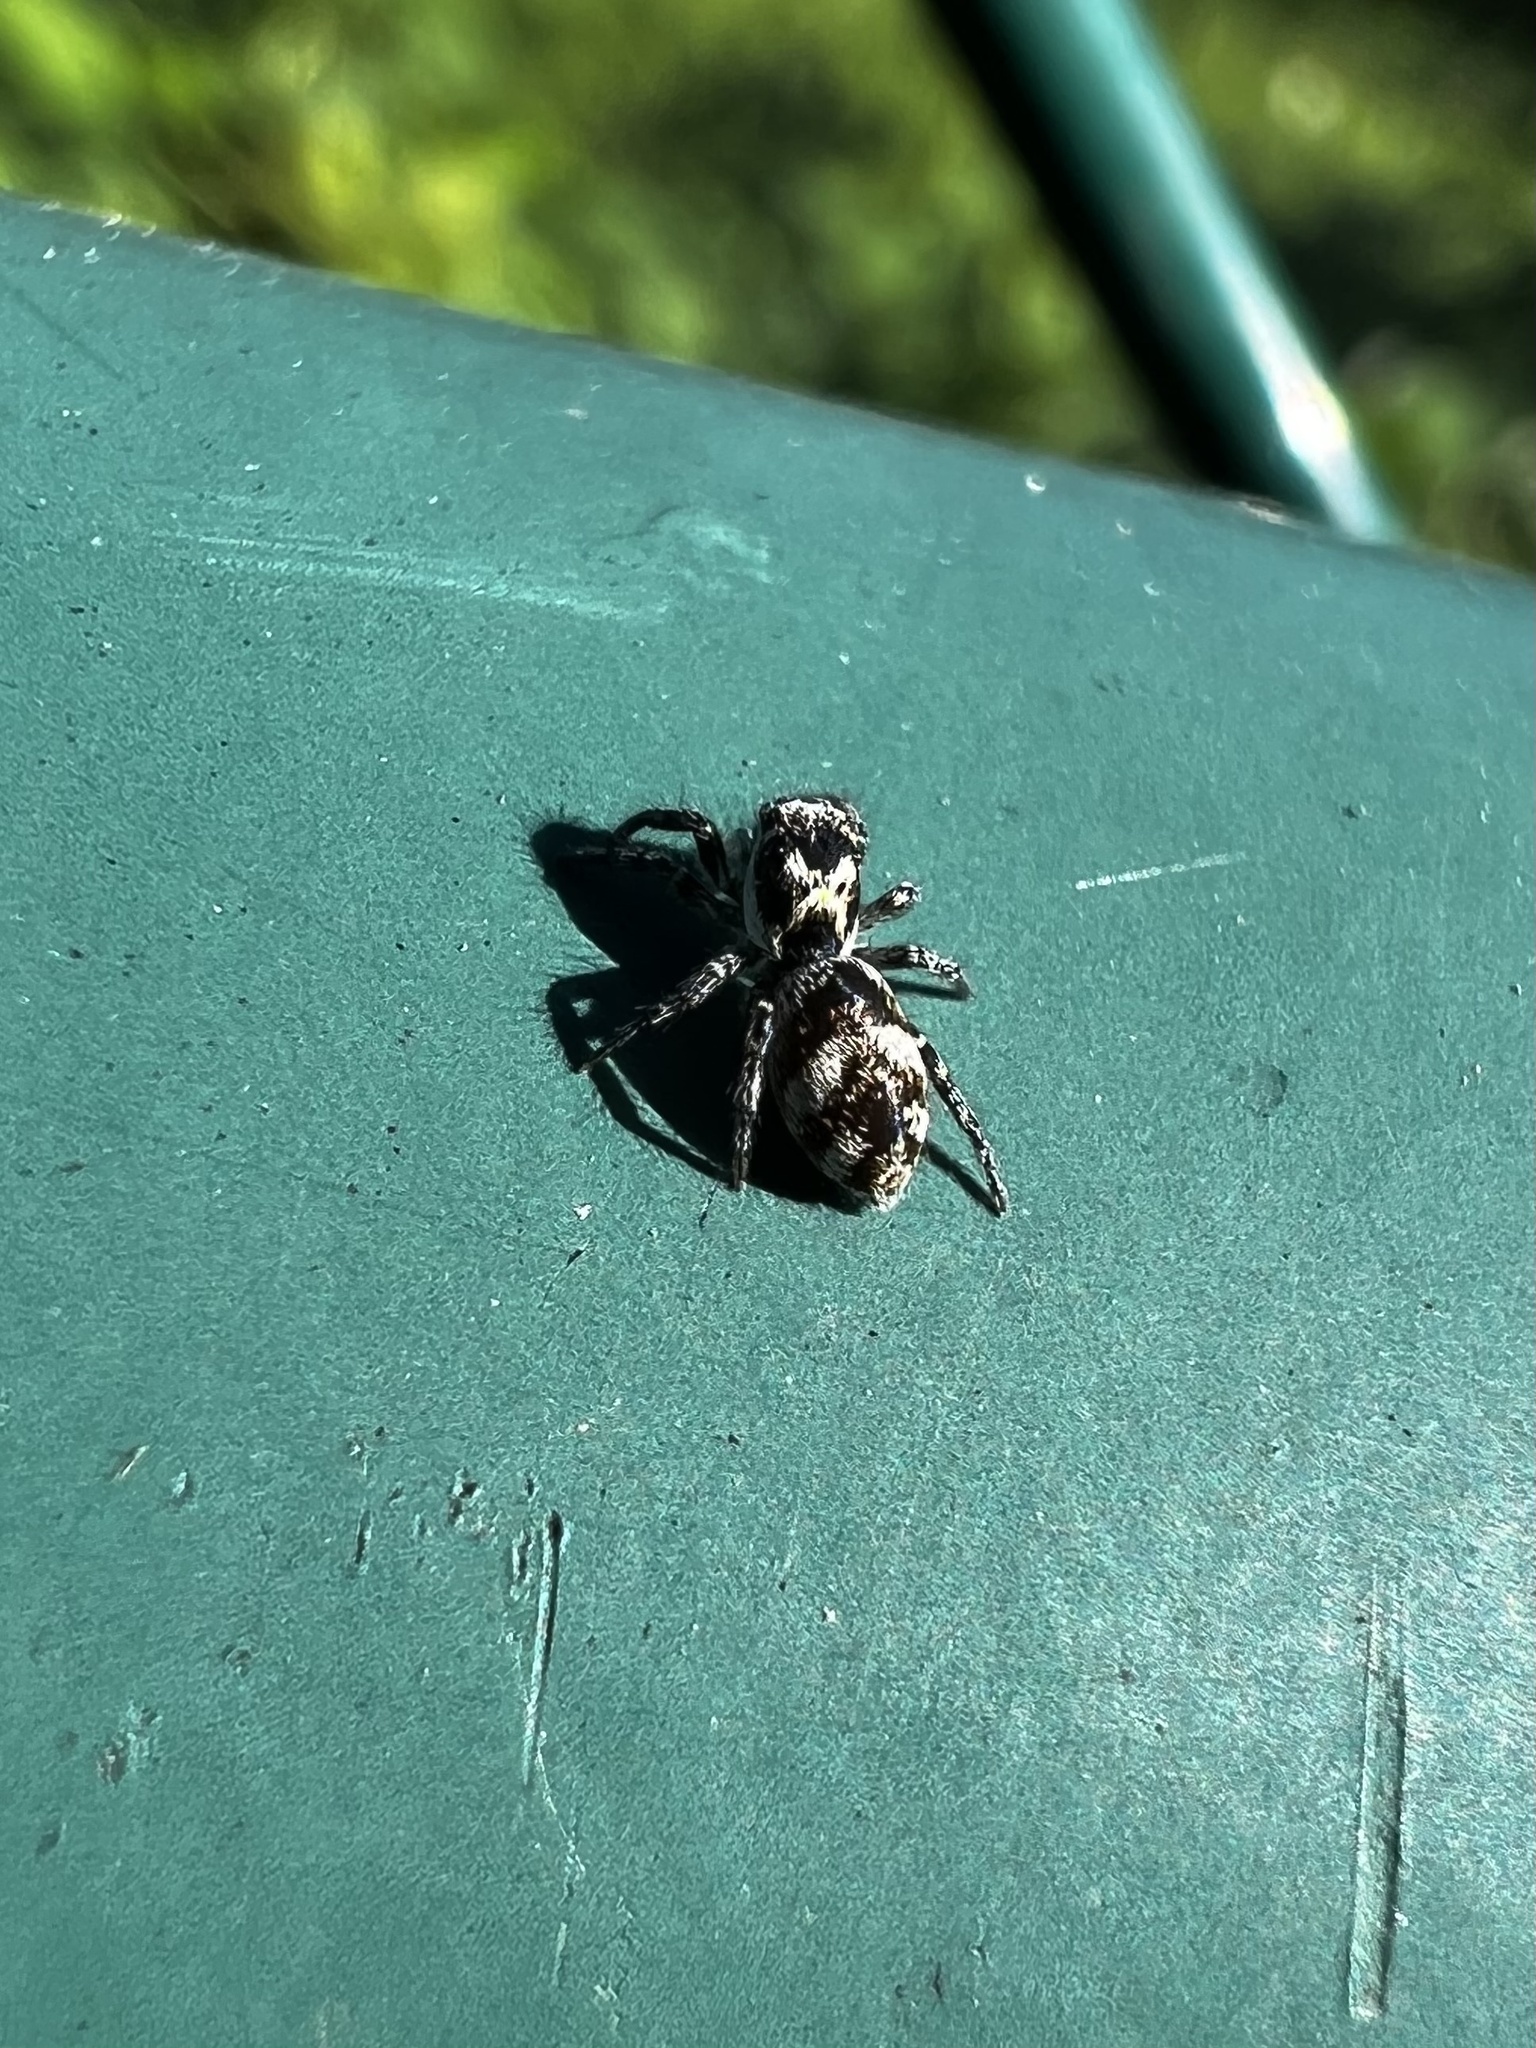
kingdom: Animalia
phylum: Arthropoda
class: Arachnida
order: Araneae
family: Salticidae
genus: Salticus
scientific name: Salticus scenicus
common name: Zebra jumper
